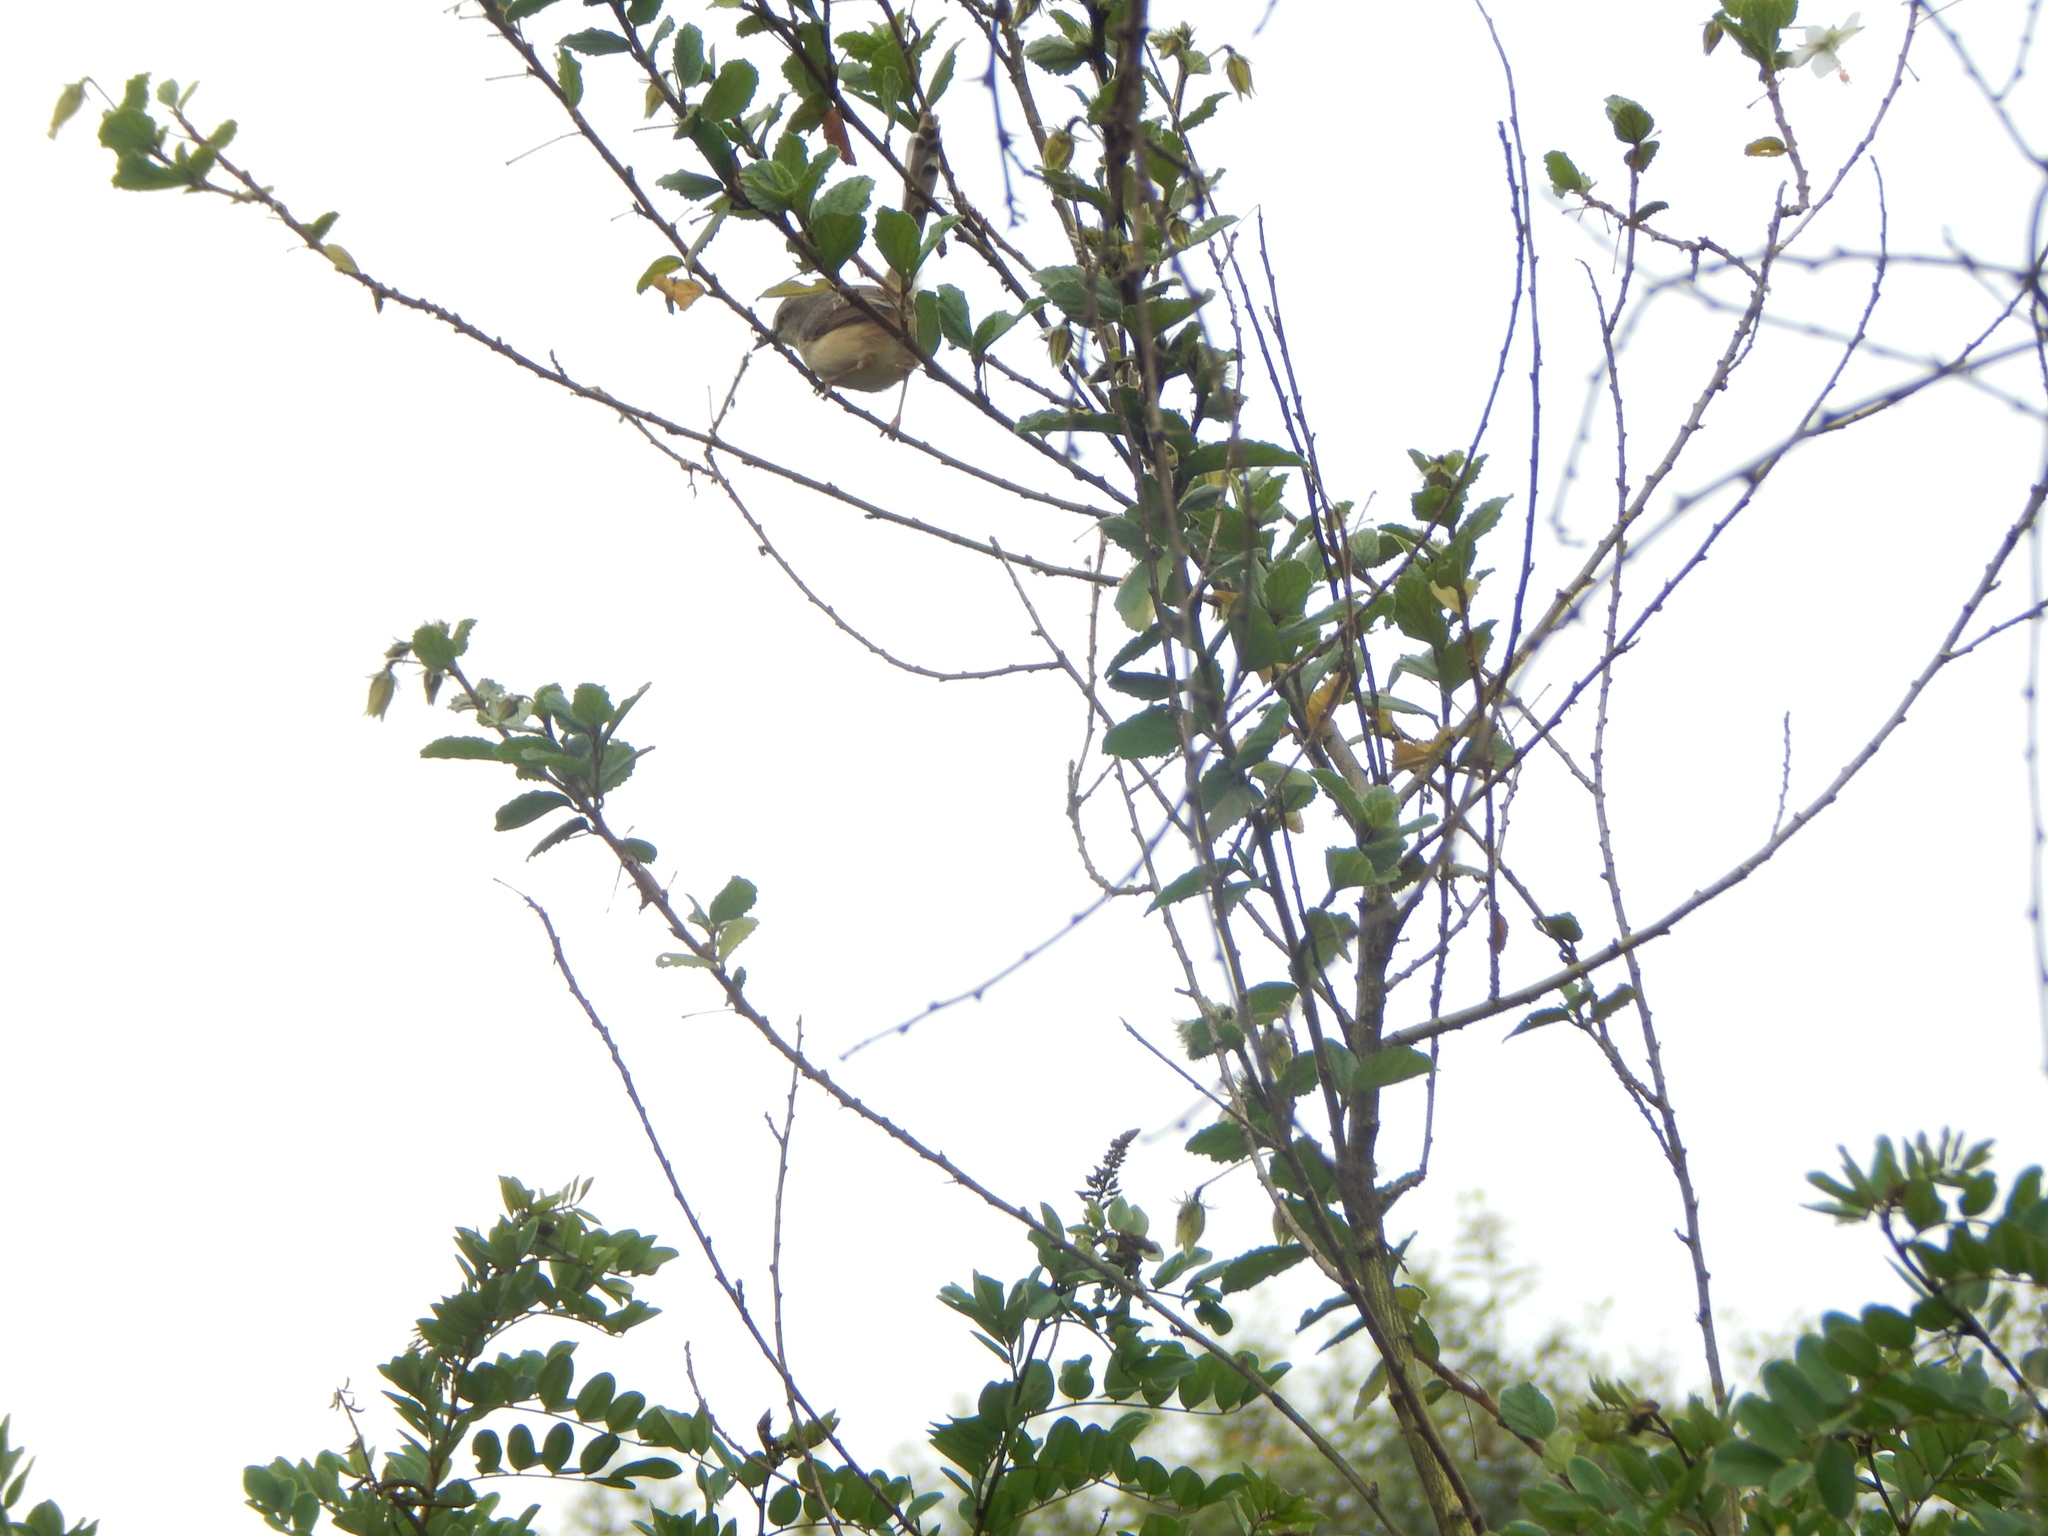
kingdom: Animalia
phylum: Chordata
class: Aves
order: Passeriformes
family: Cisticolidae
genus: Prinia
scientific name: Prinia subflava
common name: Tawny-flanked prinia
